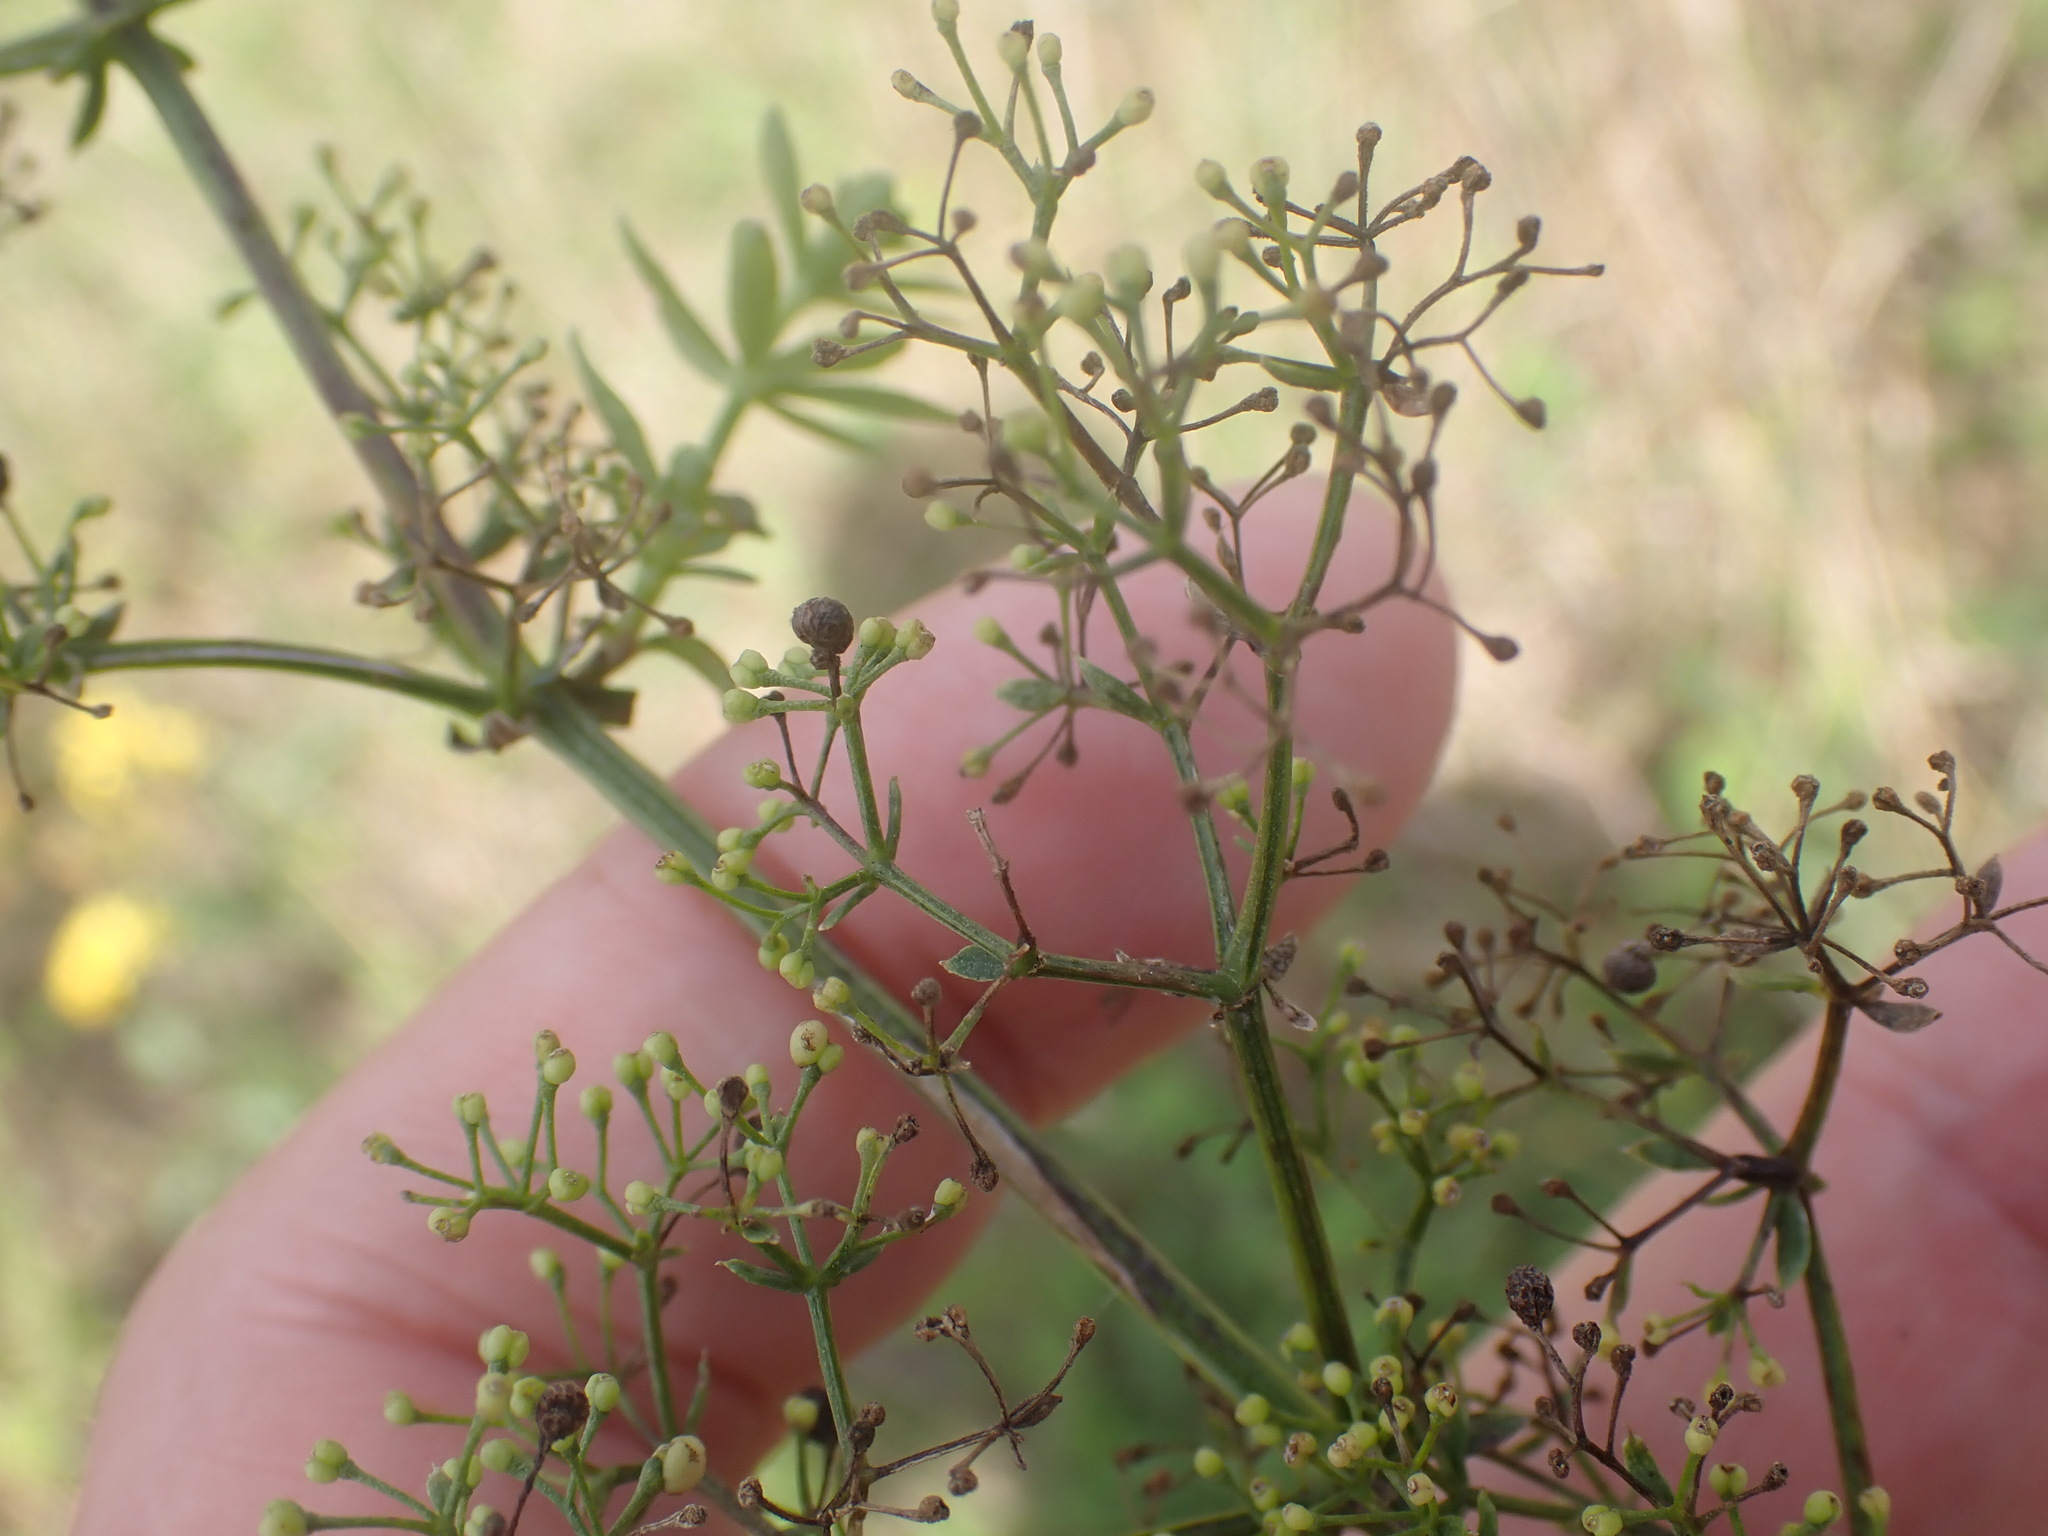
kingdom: Plantae
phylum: Tracheophyta
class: Magnoliopsida
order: Gentianales
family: Rubiaceae
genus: Galium
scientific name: Galium album
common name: White bedstraw
